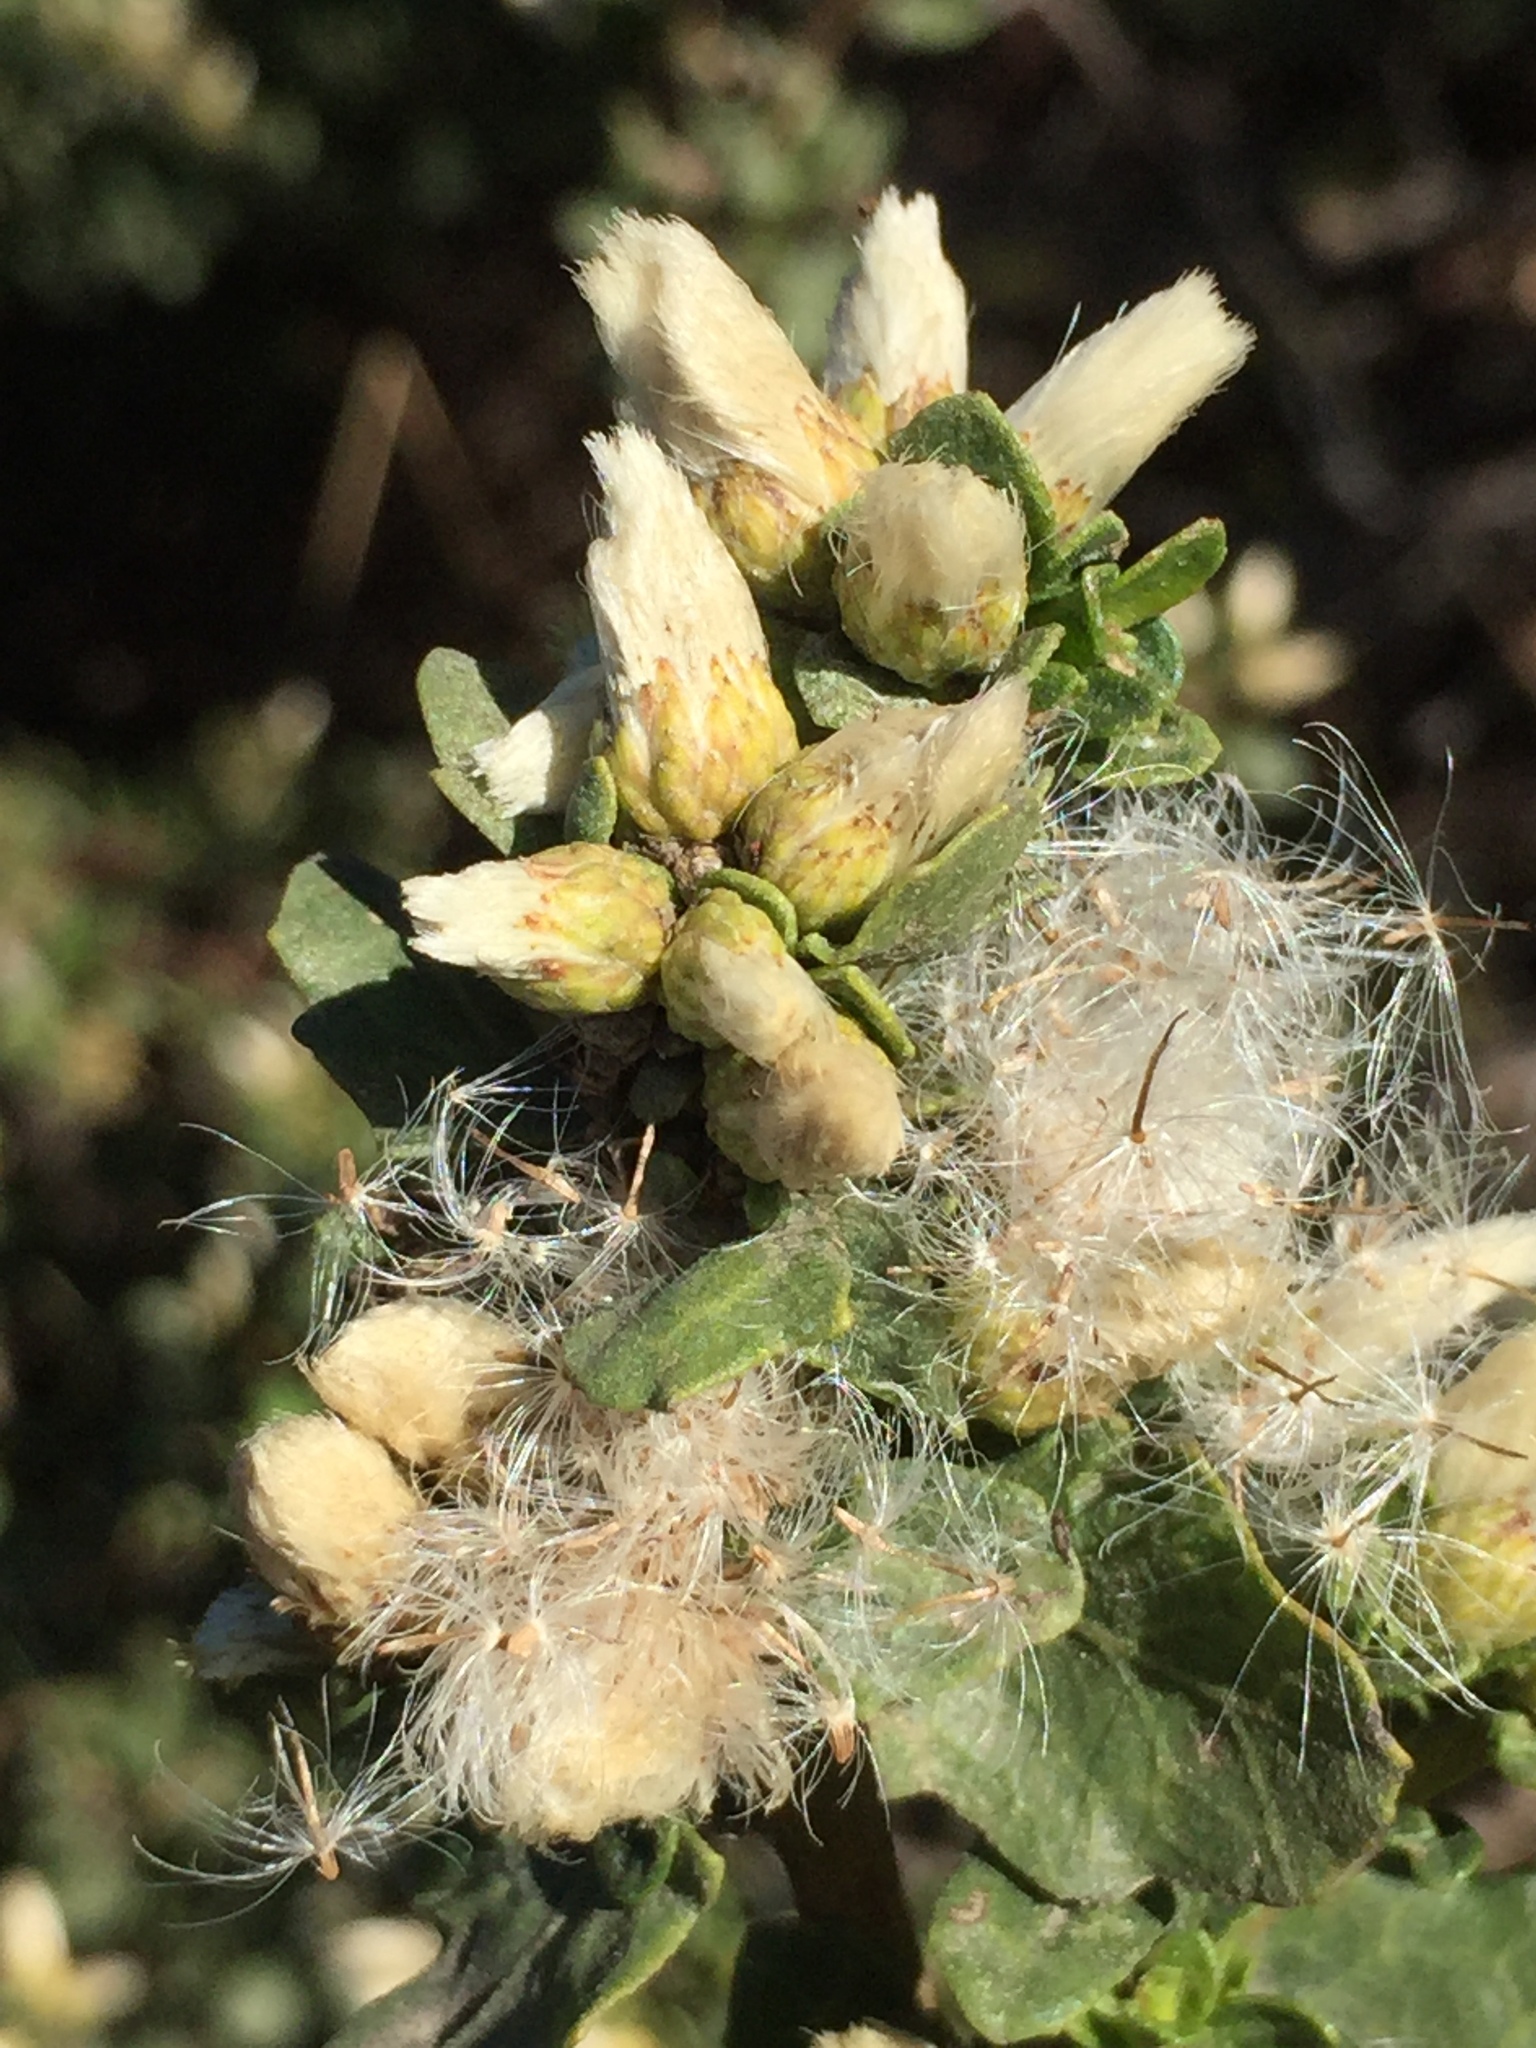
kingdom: Plantae
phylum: Tracheophyta
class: Magnoliopsida
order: Asterales
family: Asteraceae
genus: Baccharis
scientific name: Baccharis pilularis
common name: Coyotebrush
